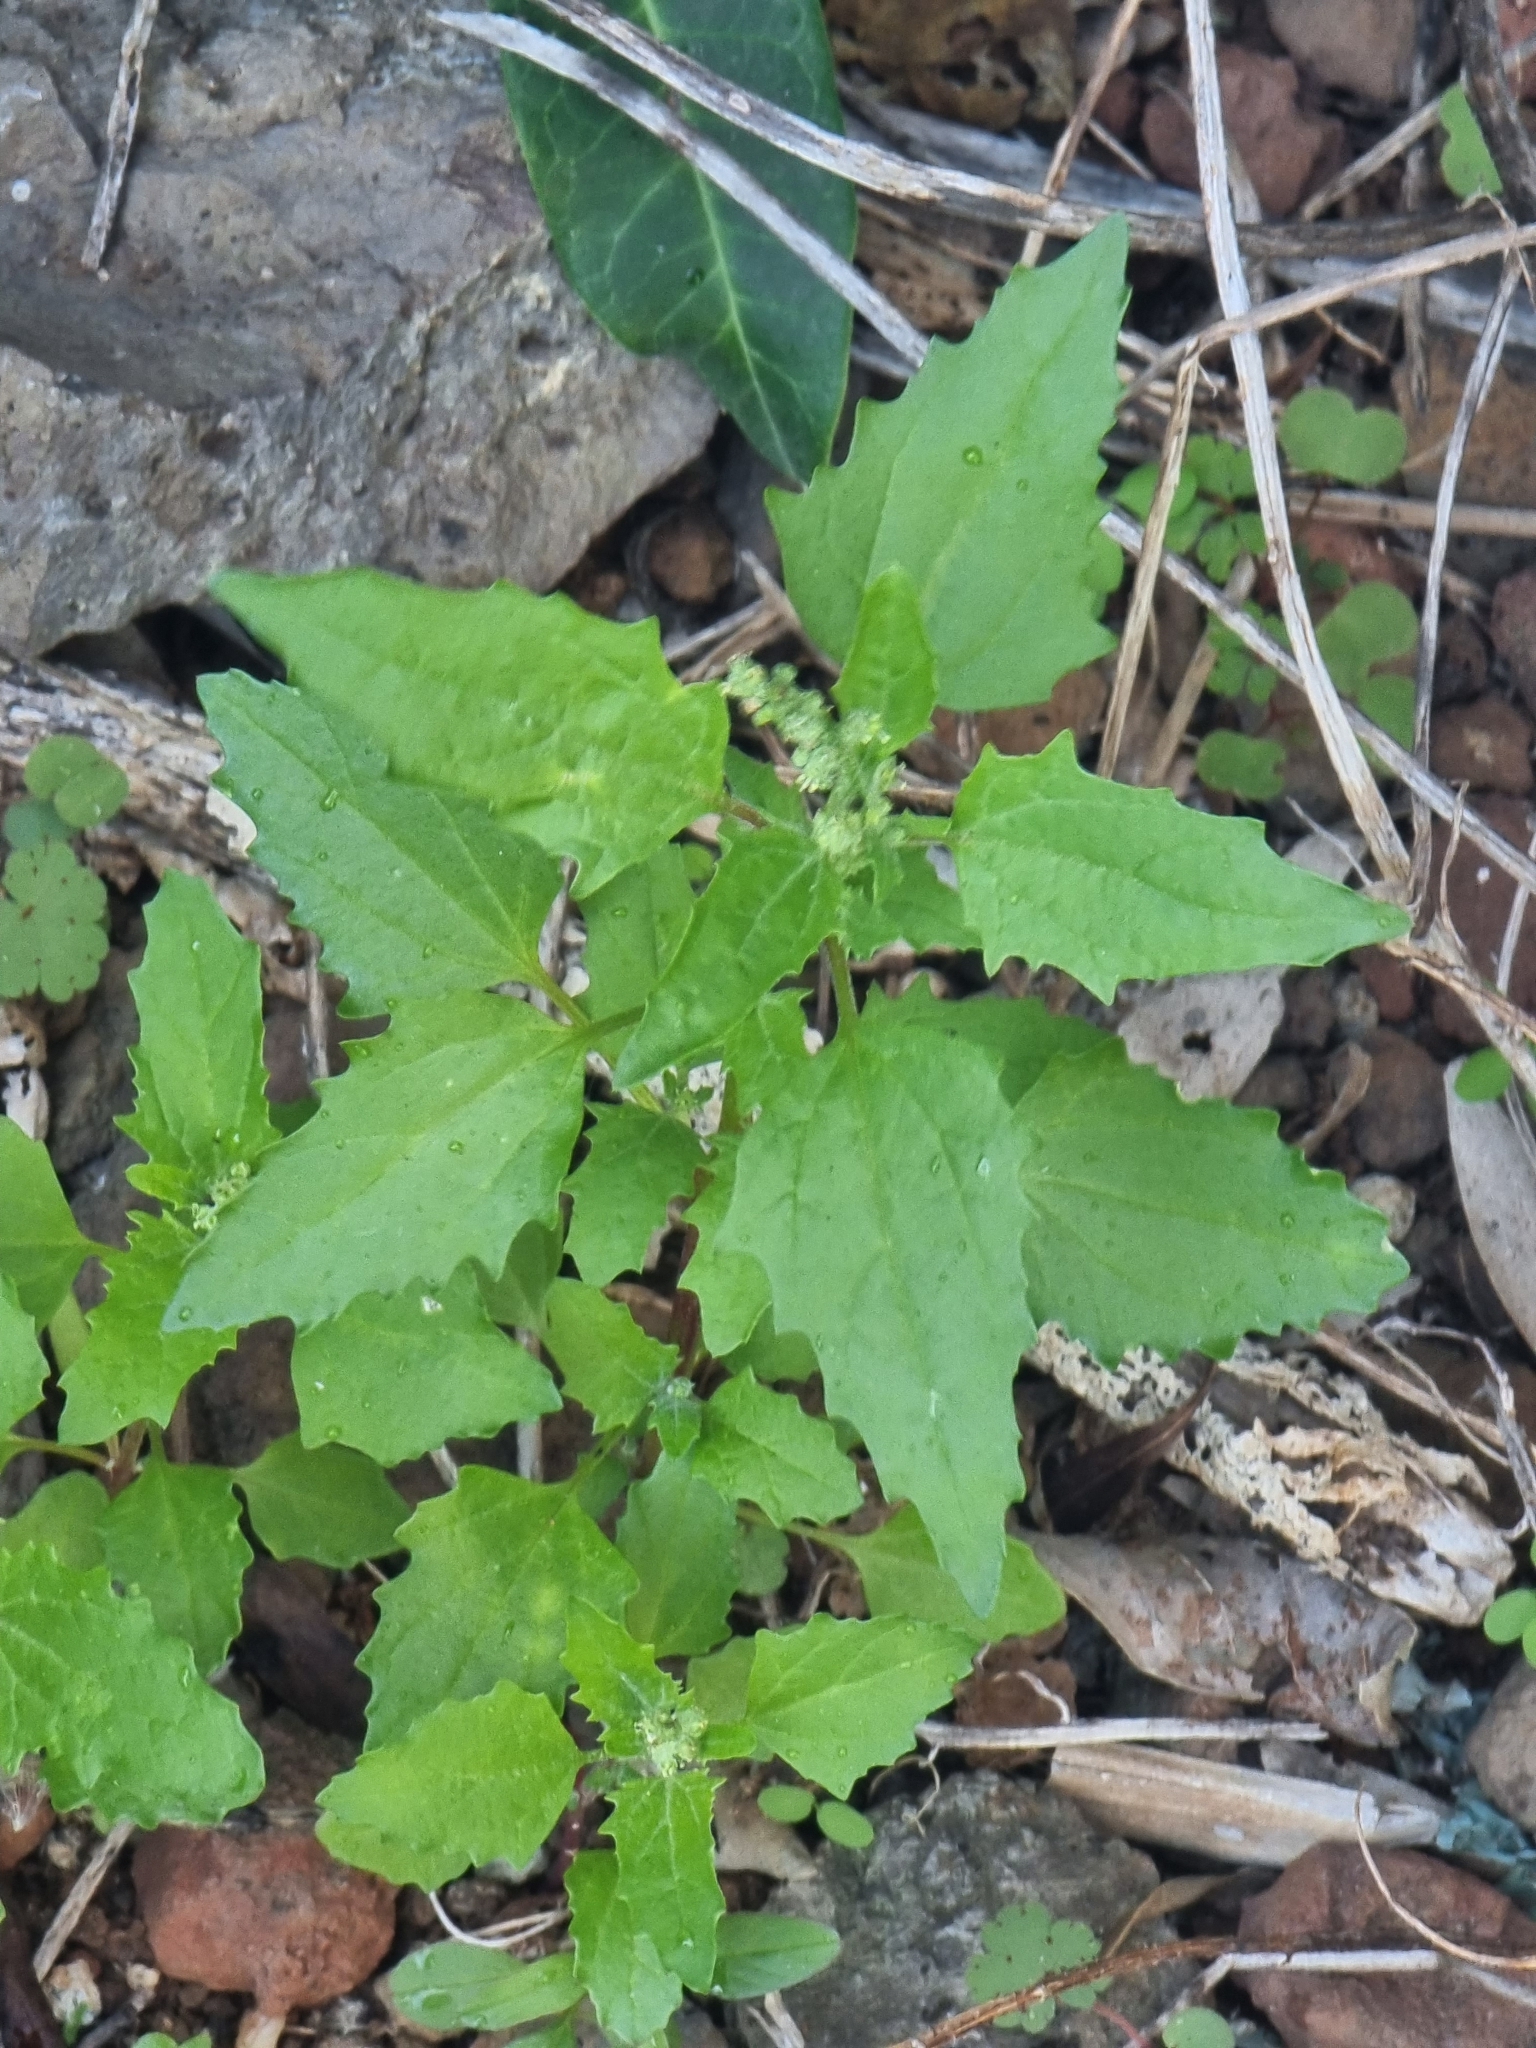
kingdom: Plantae
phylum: Tracheophyta
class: Magnoliopsida
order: Caryophyllales
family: Amaranthaceae
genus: Chenopodiastrum
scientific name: Chenopodiastrum murale
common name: Sowbane
